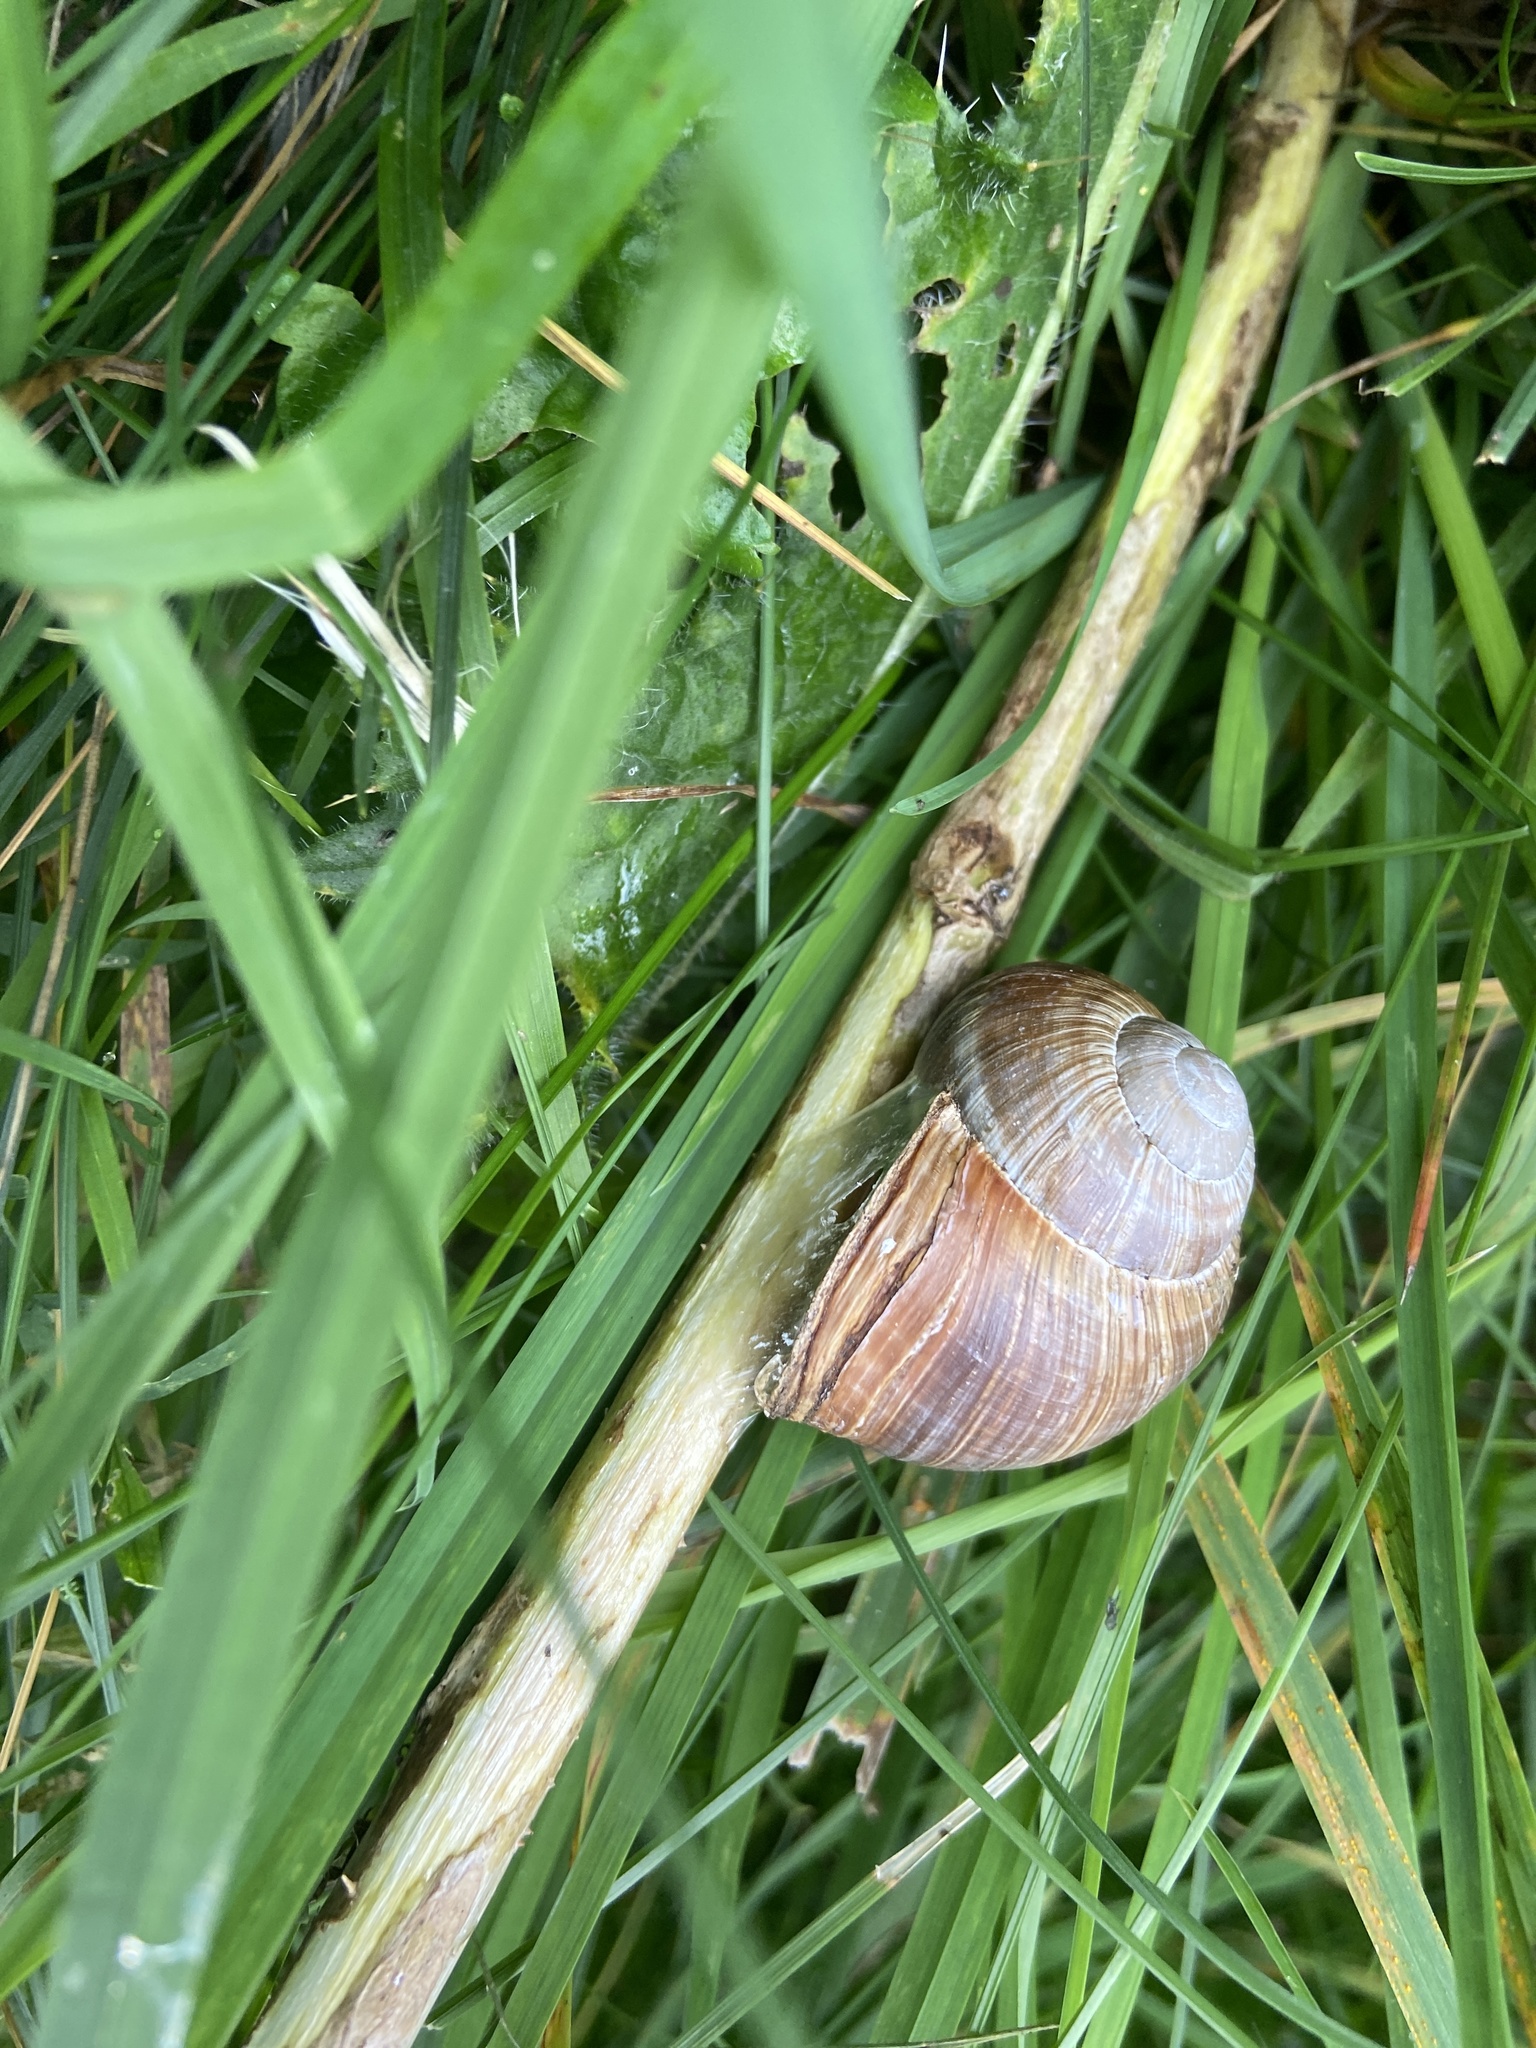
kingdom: Animalia
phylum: Mollusca
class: Gastropoda
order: Stylommatophora
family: Helicidae
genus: Helix
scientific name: Helix pomatia
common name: Roman snail
